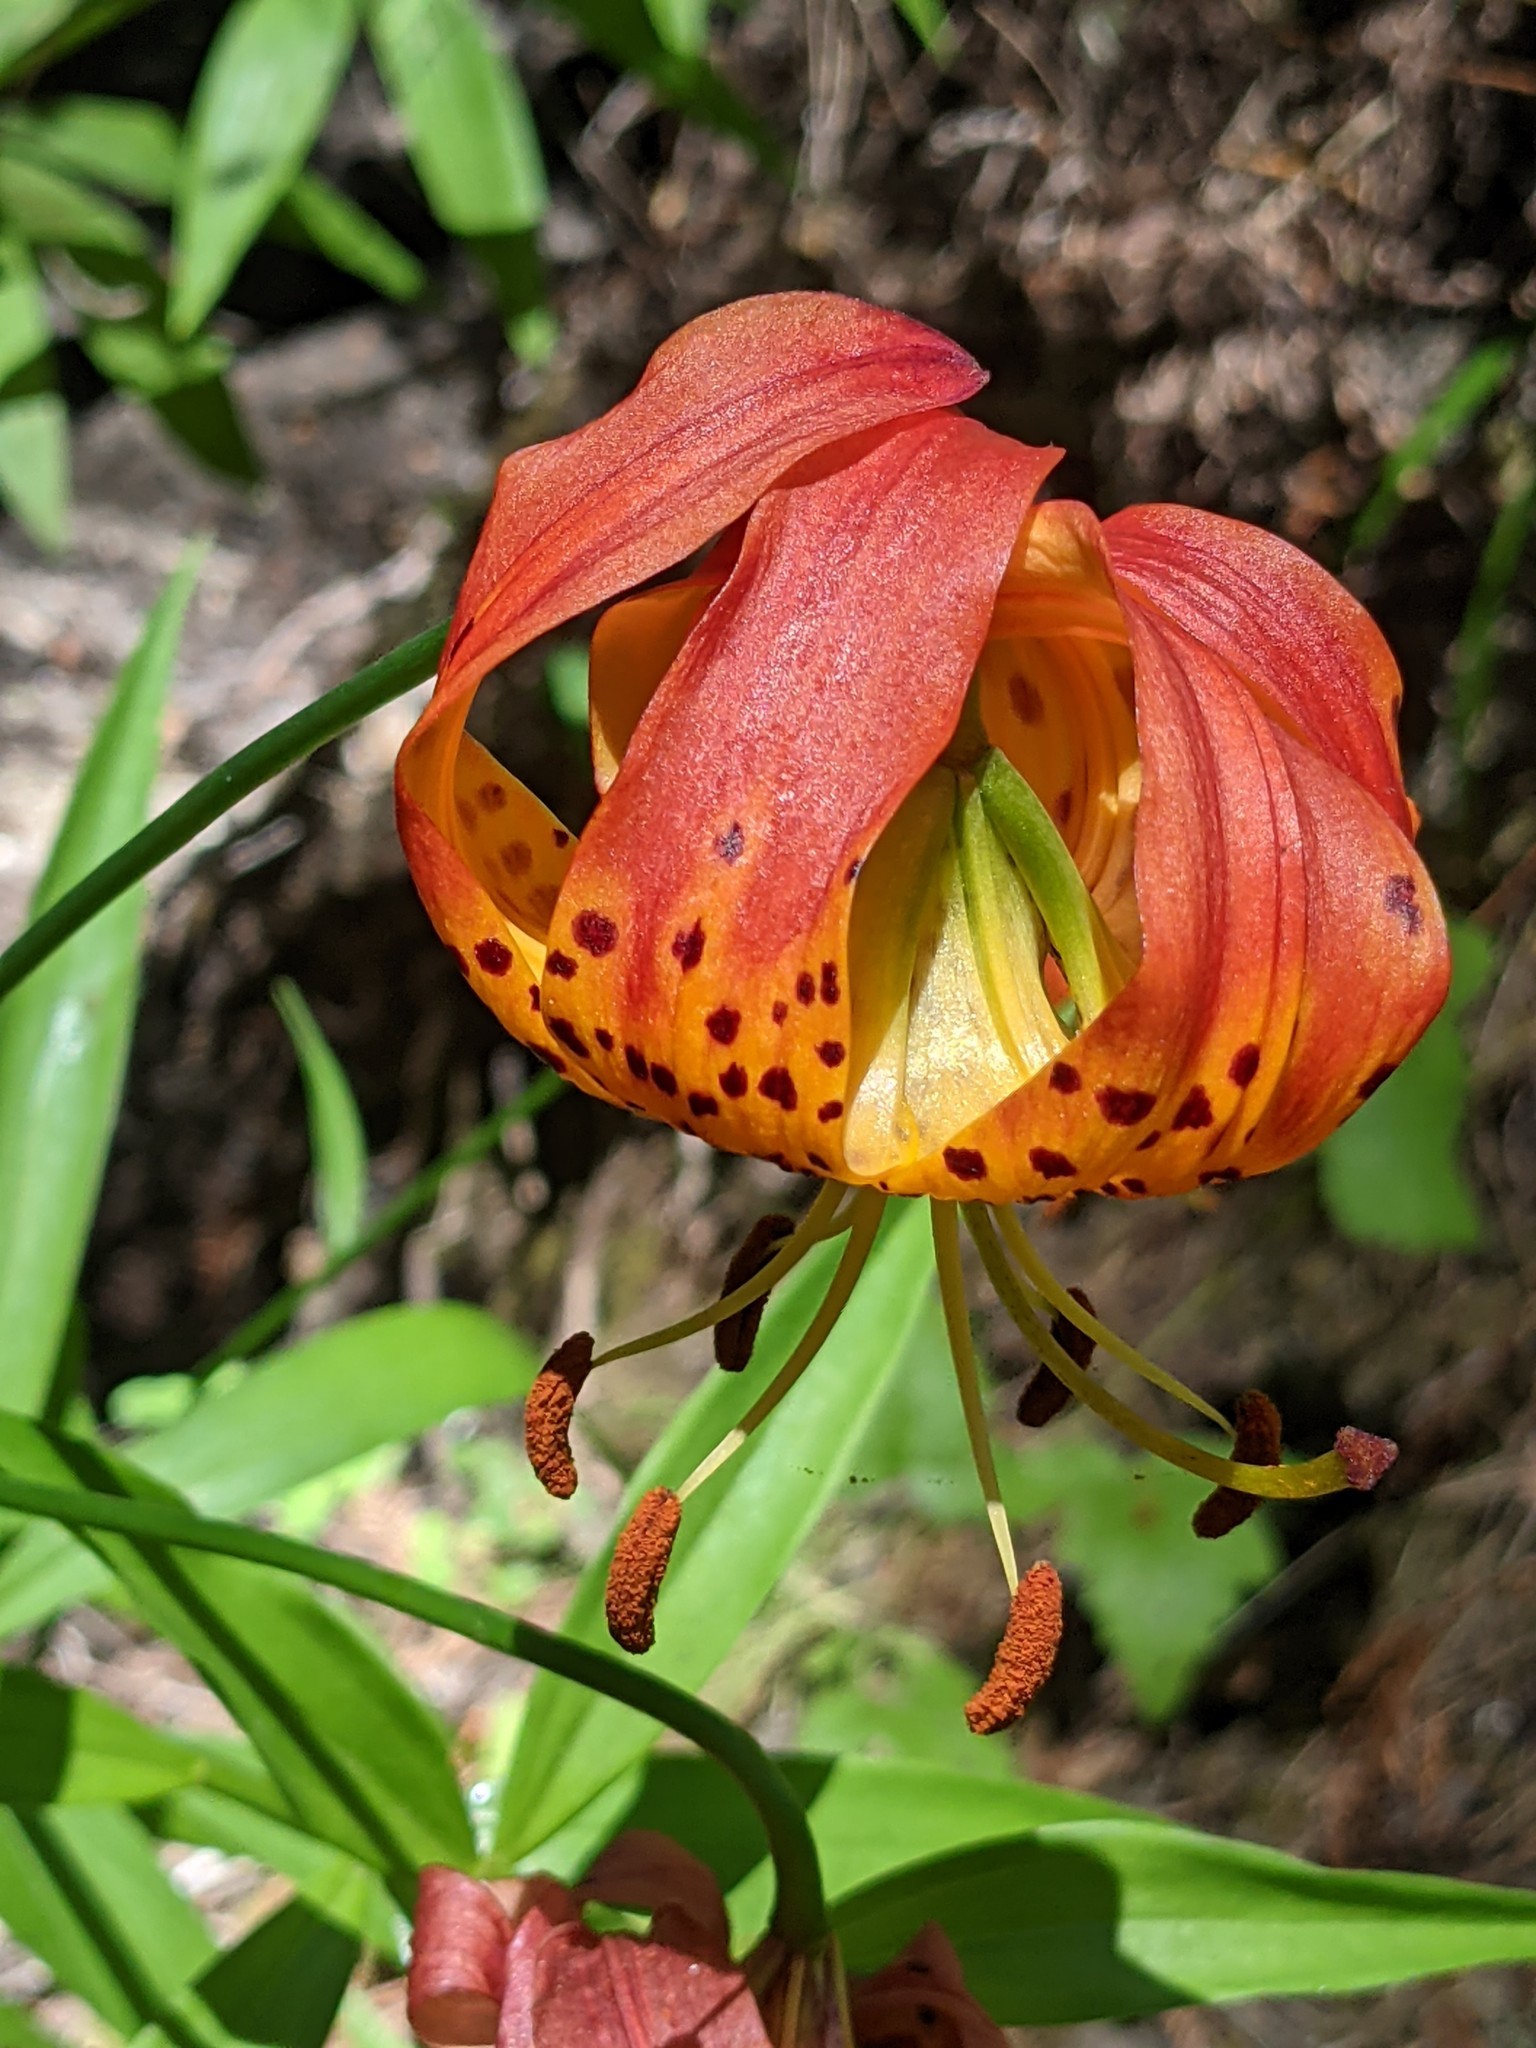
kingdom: Plantae
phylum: Tracheophyta
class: Liliopsida
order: Liliales
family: Liliaceae
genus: Lilium
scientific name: Lilium pardalinum
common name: Panther lily
